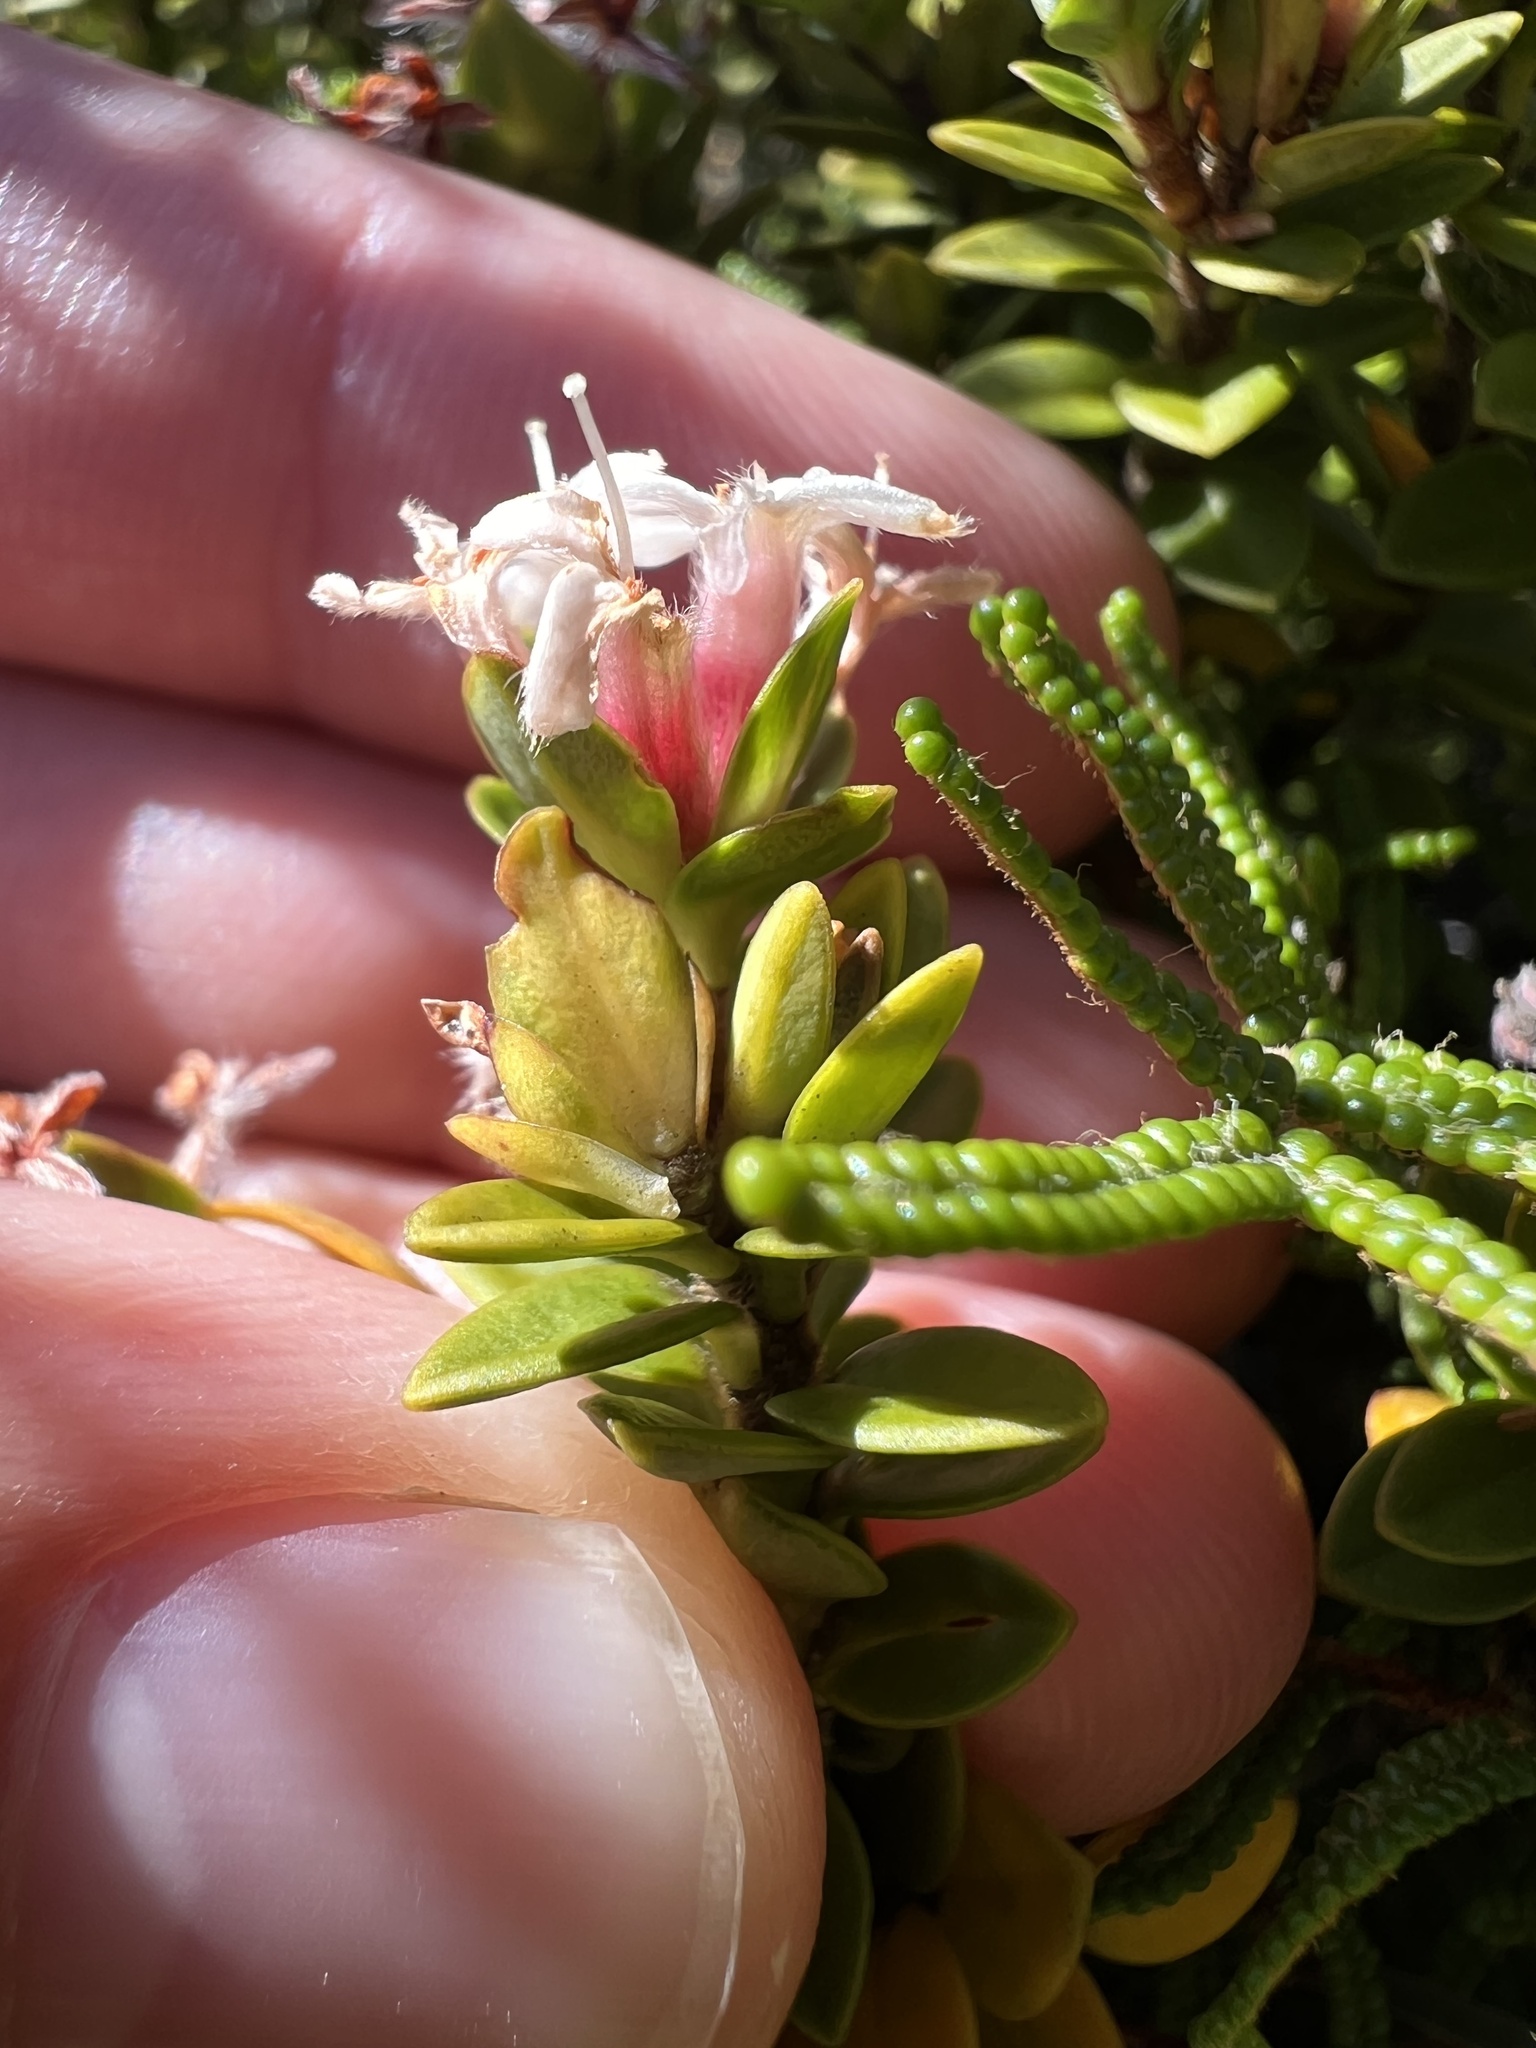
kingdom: Plantae
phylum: Tracheophyta
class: Magnoliopsida
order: Malvales
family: Thymelaeaceae
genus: Pimelea
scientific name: Pimelea buxifolia
